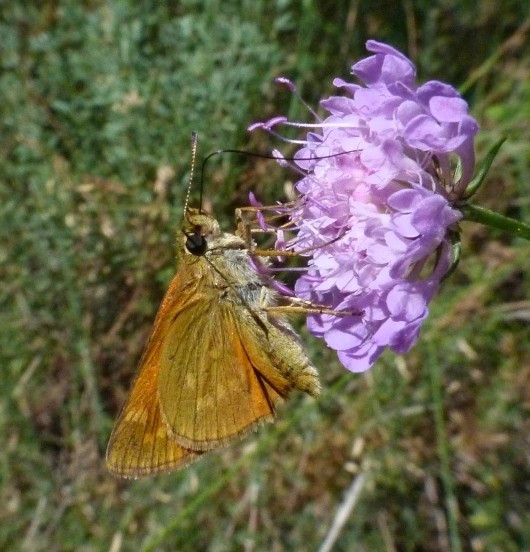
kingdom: Animalia
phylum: Arthropoda
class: Insecta
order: Lepidoptera
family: Hesperiidae
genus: Ochlodes
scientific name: Ochlodes venata
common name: Large skipper
